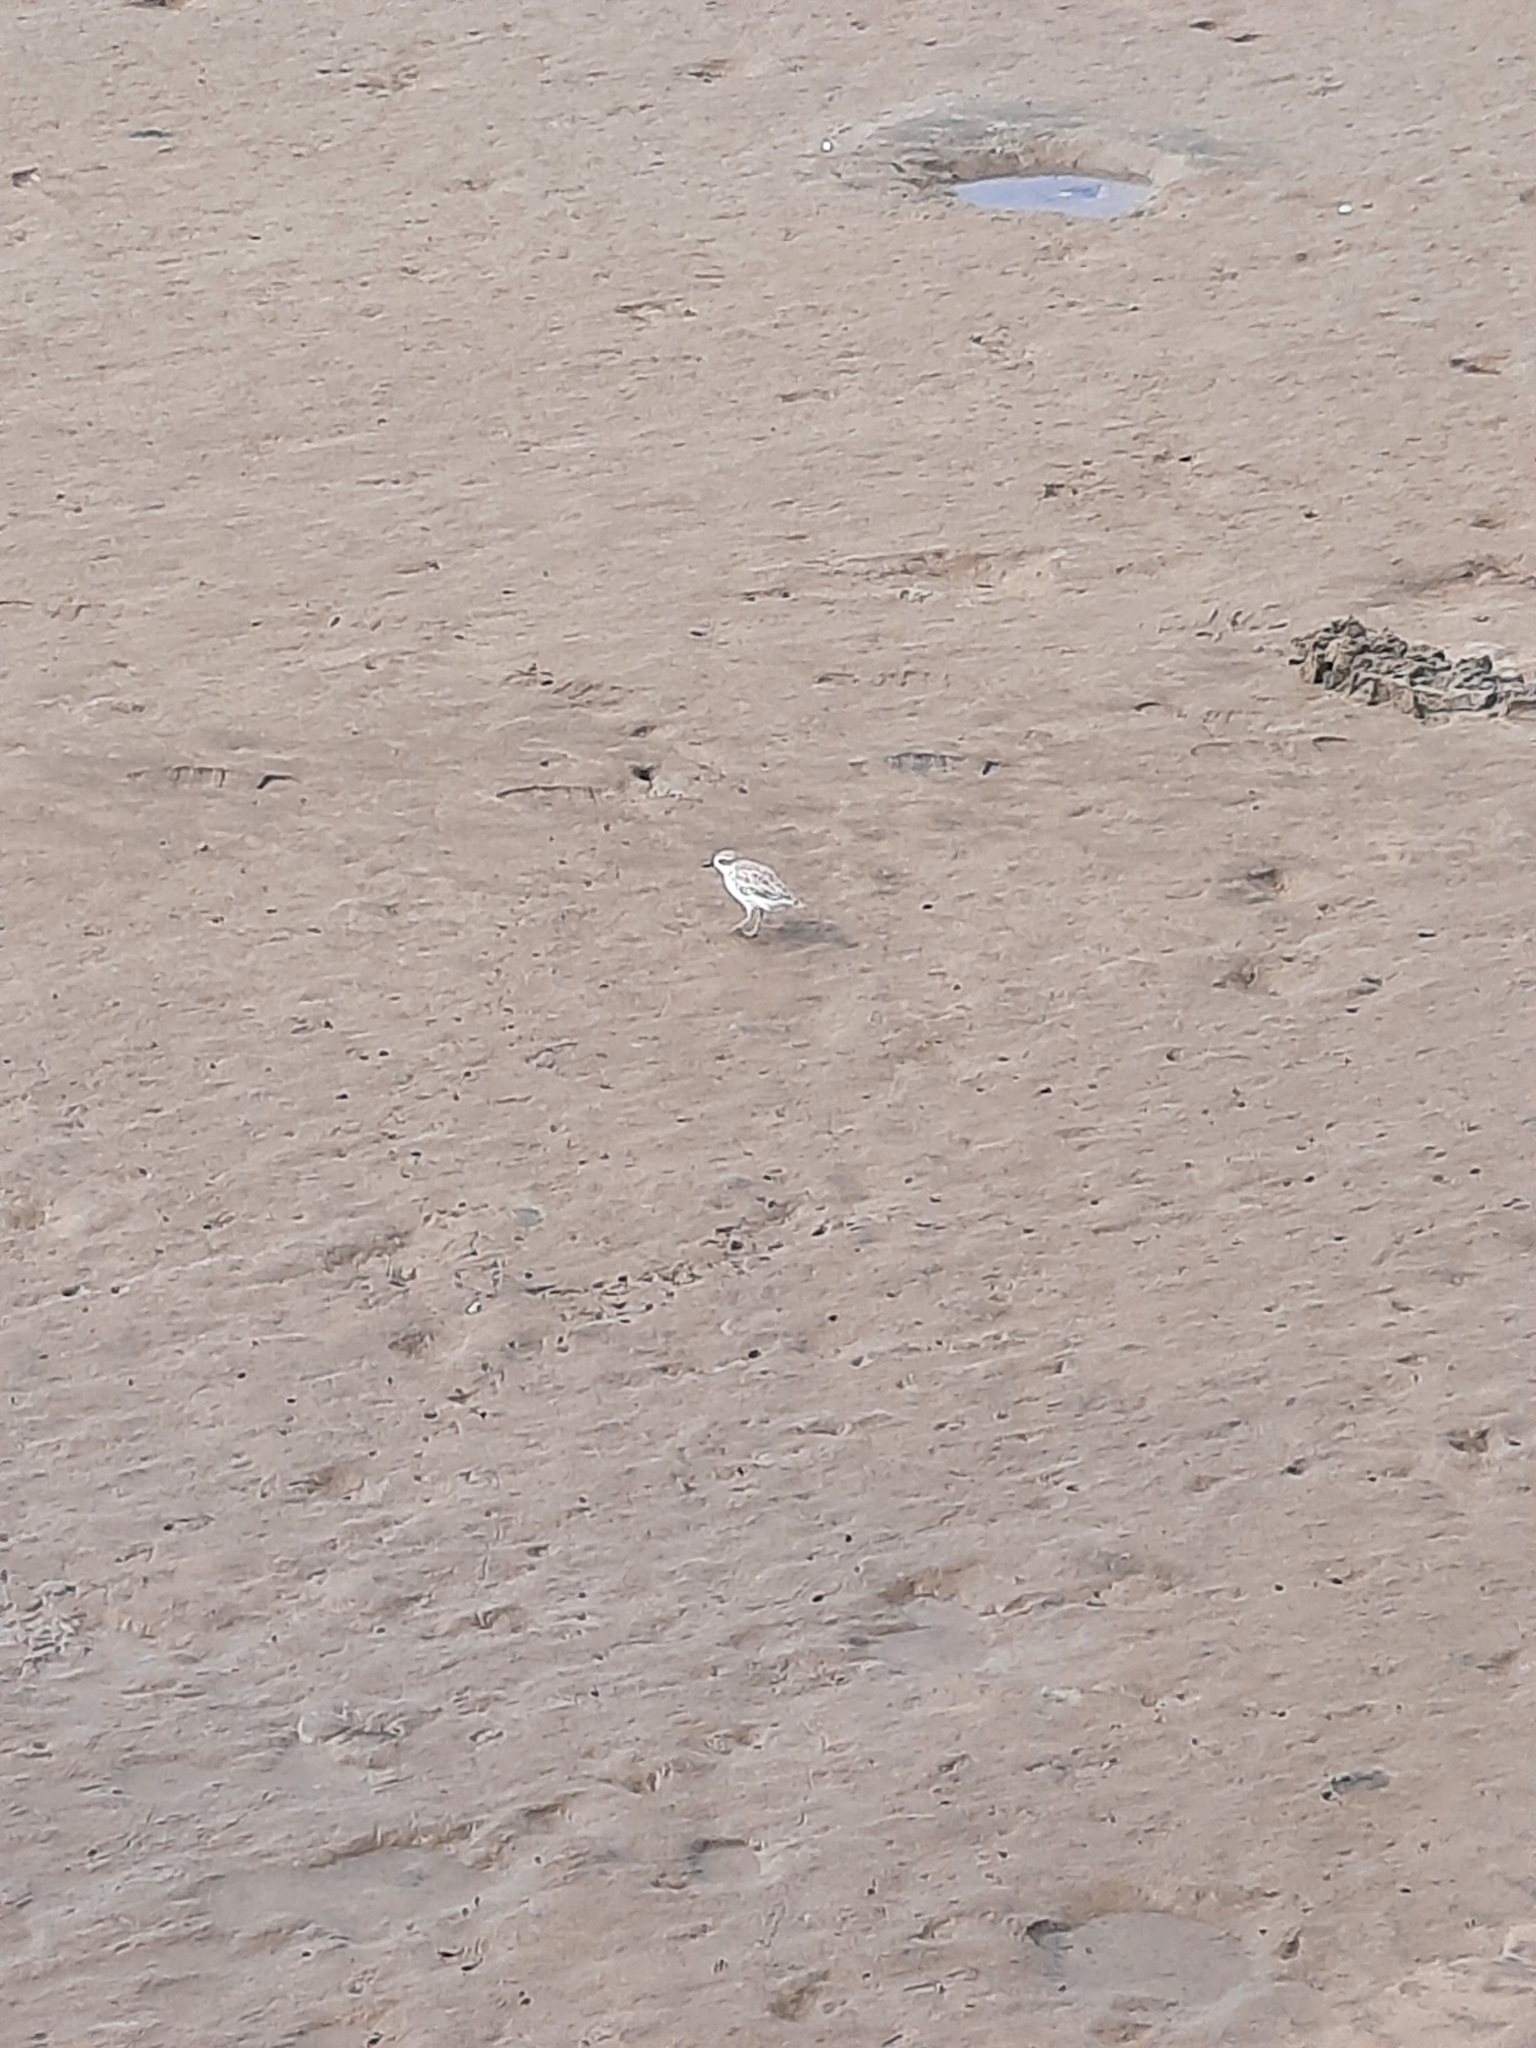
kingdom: Animalia
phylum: Chordata
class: Aves
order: Charadriiformes
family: Charadriidae
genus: Anarhynchus
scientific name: Anarhynchus
